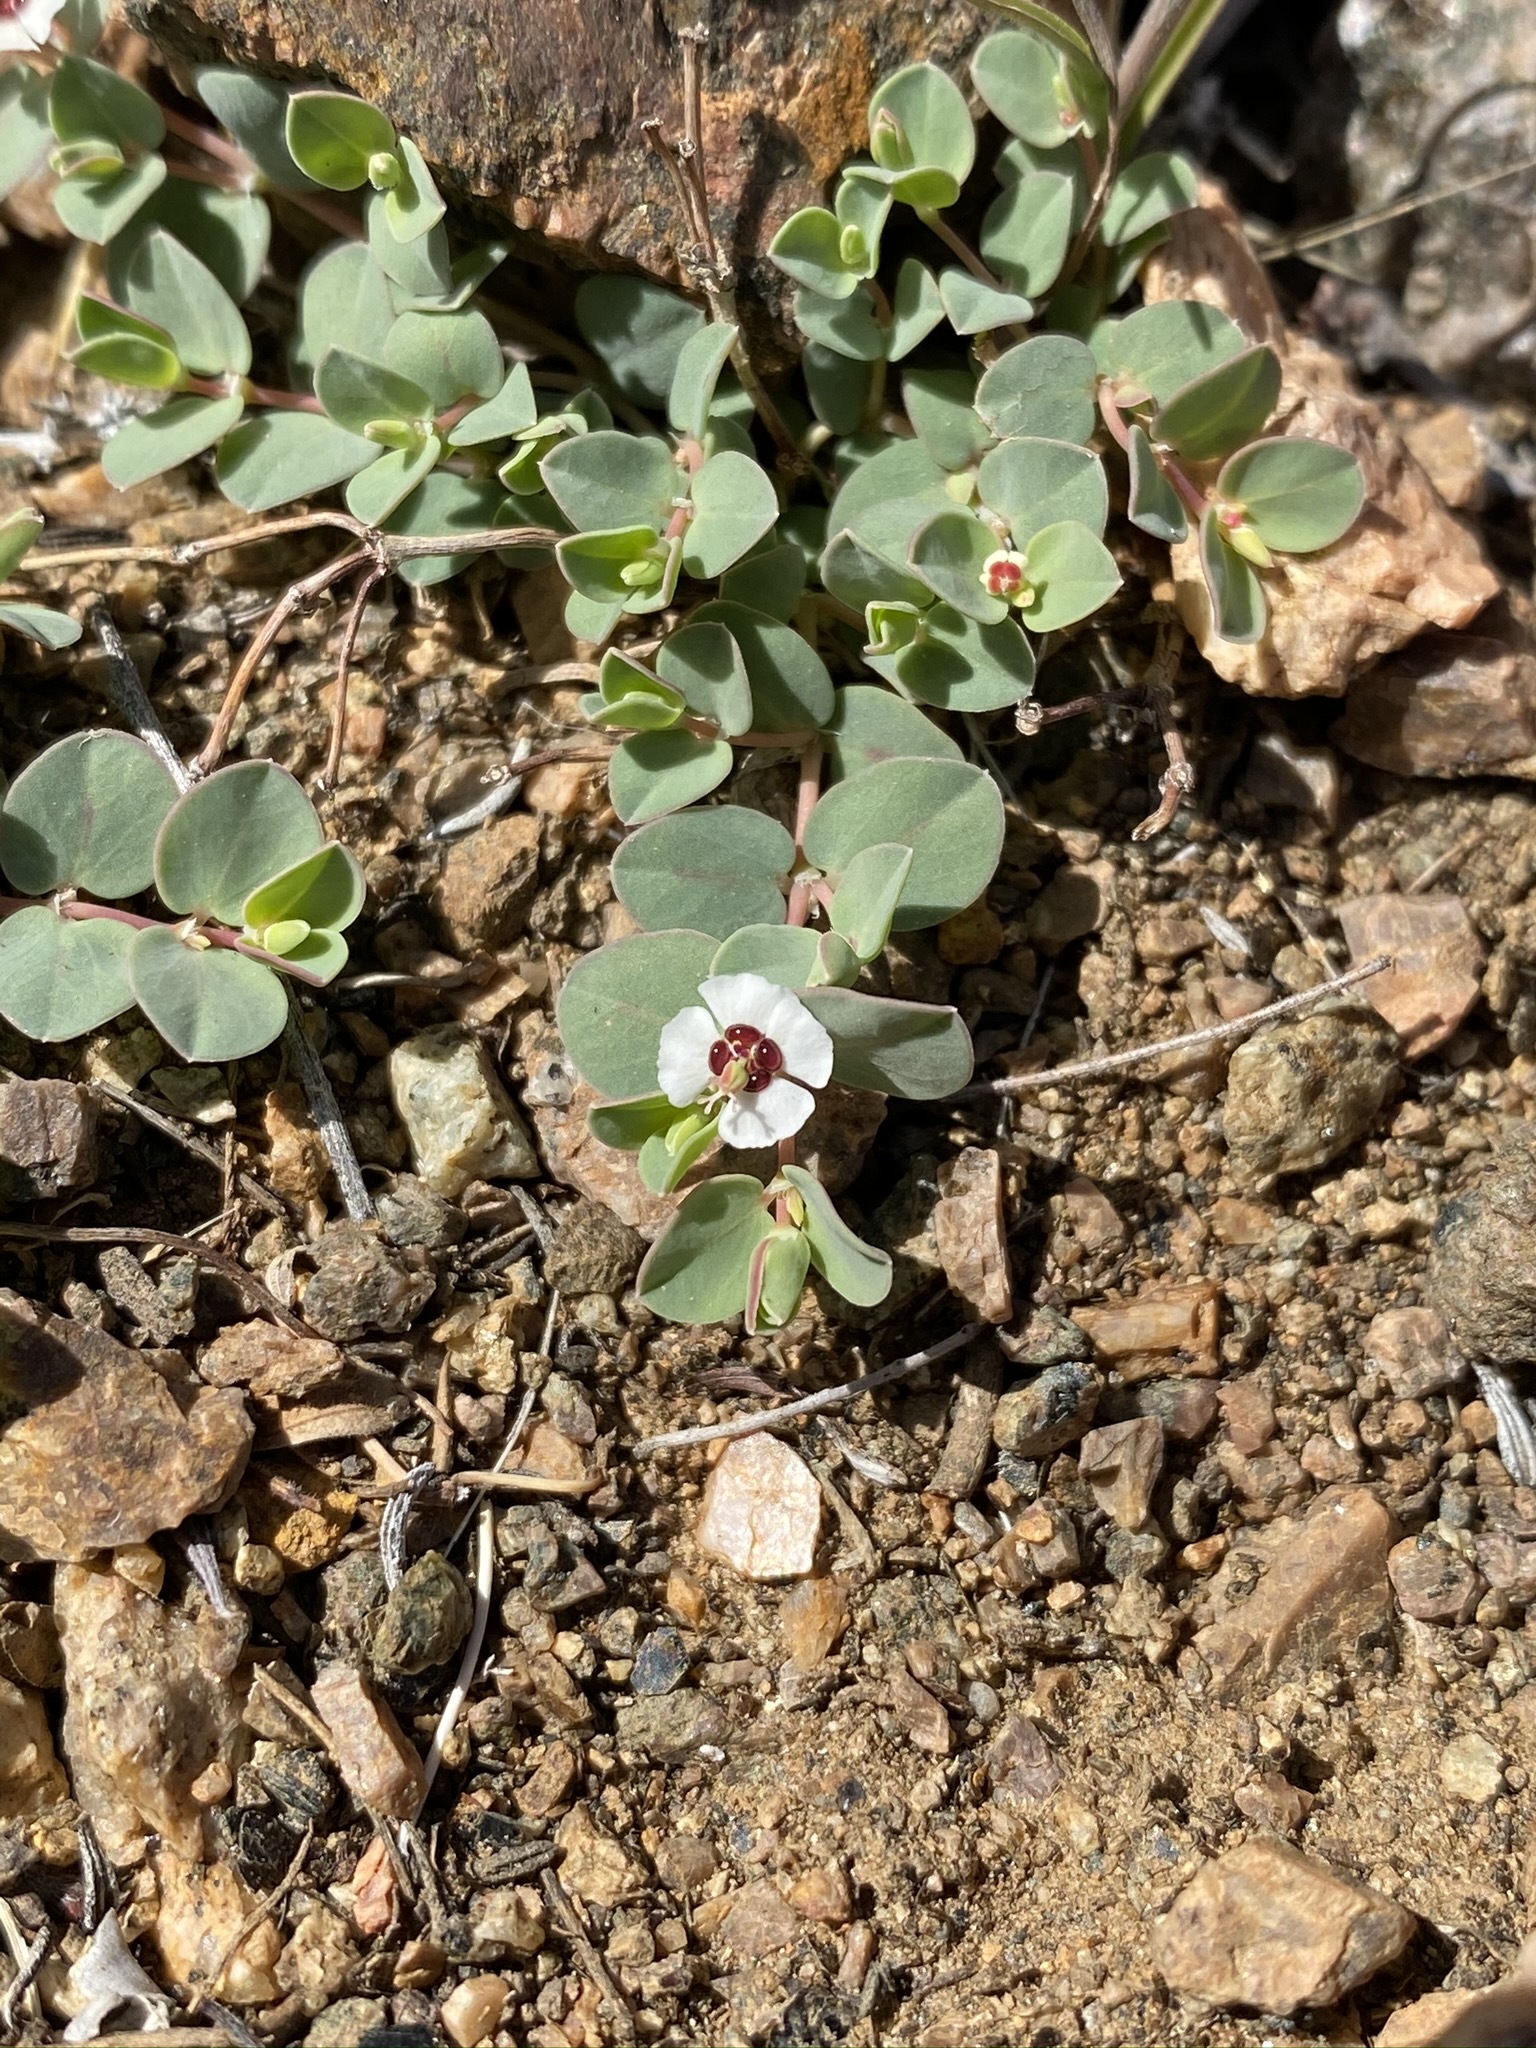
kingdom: Plantae
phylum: Tracheophyta
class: Magnoliopsida
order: Malpighiales
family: Euphorbiaceae
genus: Euphorbia
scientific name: Euphorbia albomarginata
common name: Whitemargin sandmat
